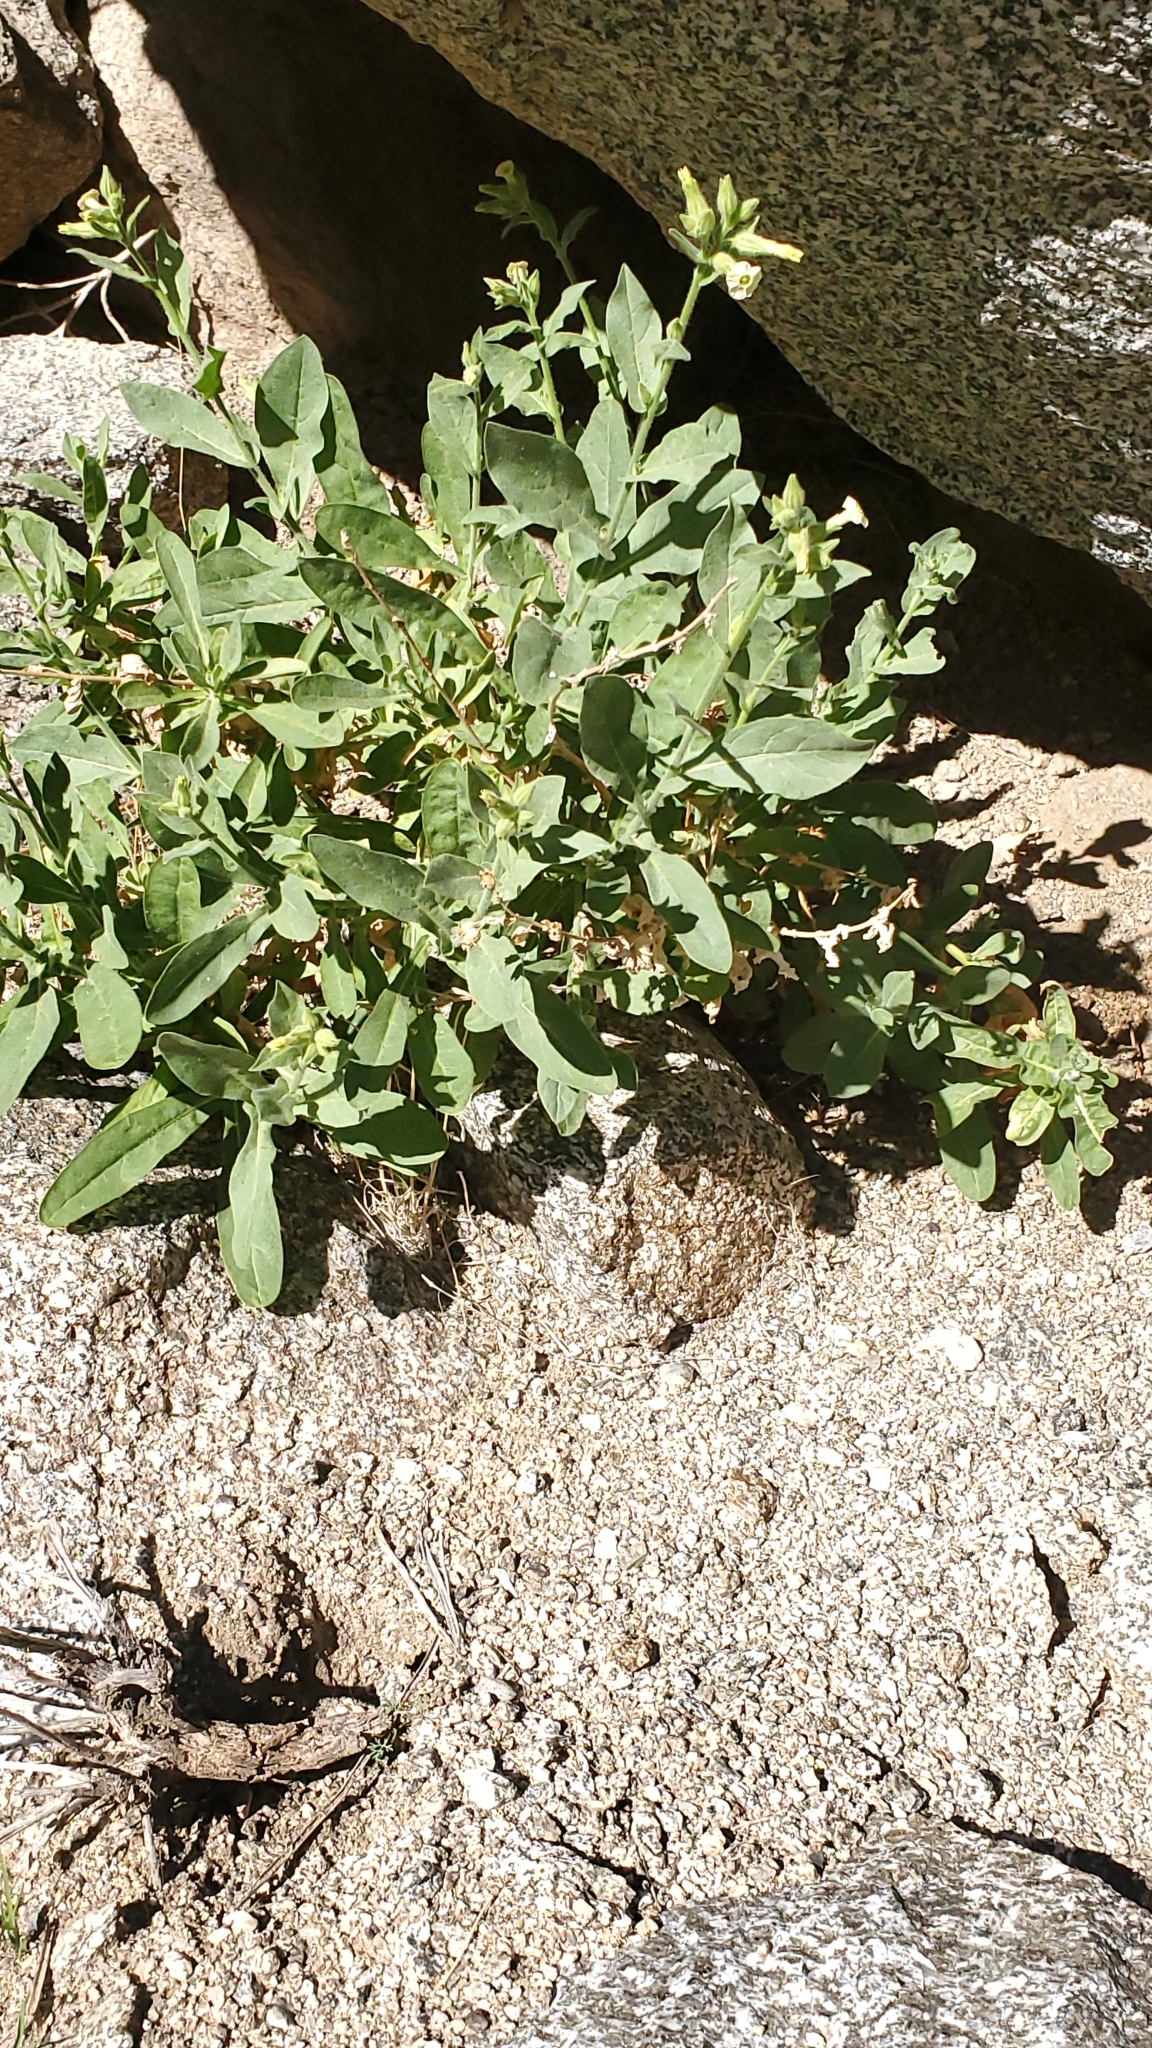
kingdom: Plantae
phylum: Tracheophyta
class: Magnoliopsida
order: Solanales
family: Solanaceae
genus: Nicotiana
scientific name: Nicotiana obtusifolia
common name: Desert tobacco
